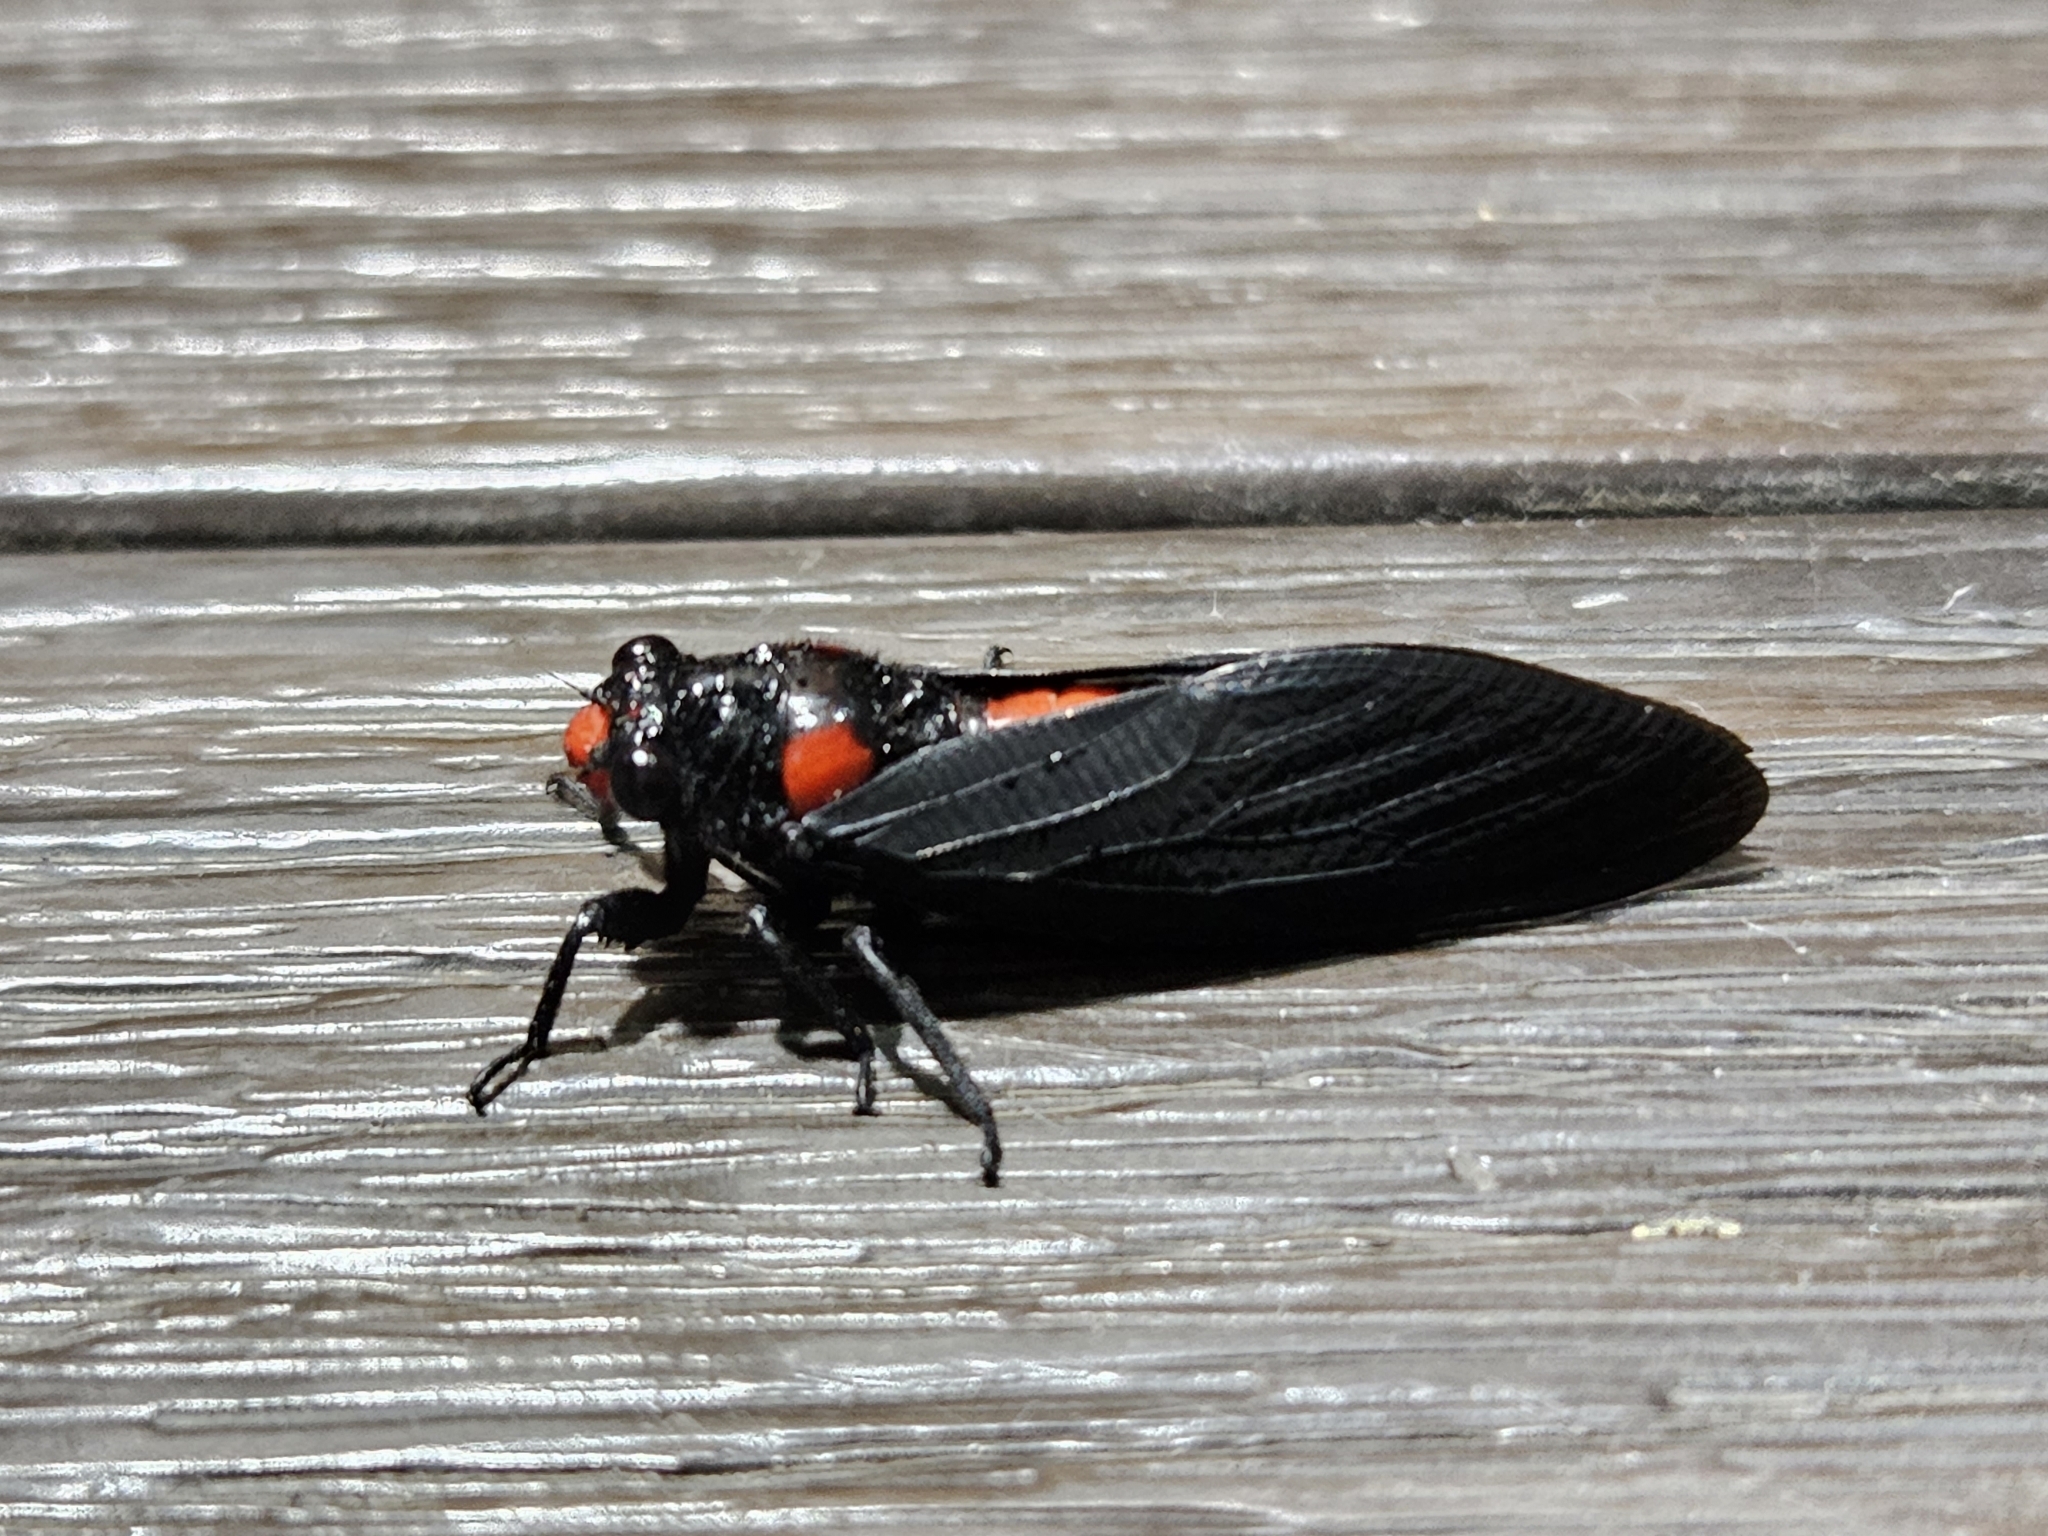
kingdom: Animalia
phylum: Arthropoda
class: Insecta
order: Hemiptera
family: Cicadidae
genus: Huechys
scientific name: Huechys sanguinea
